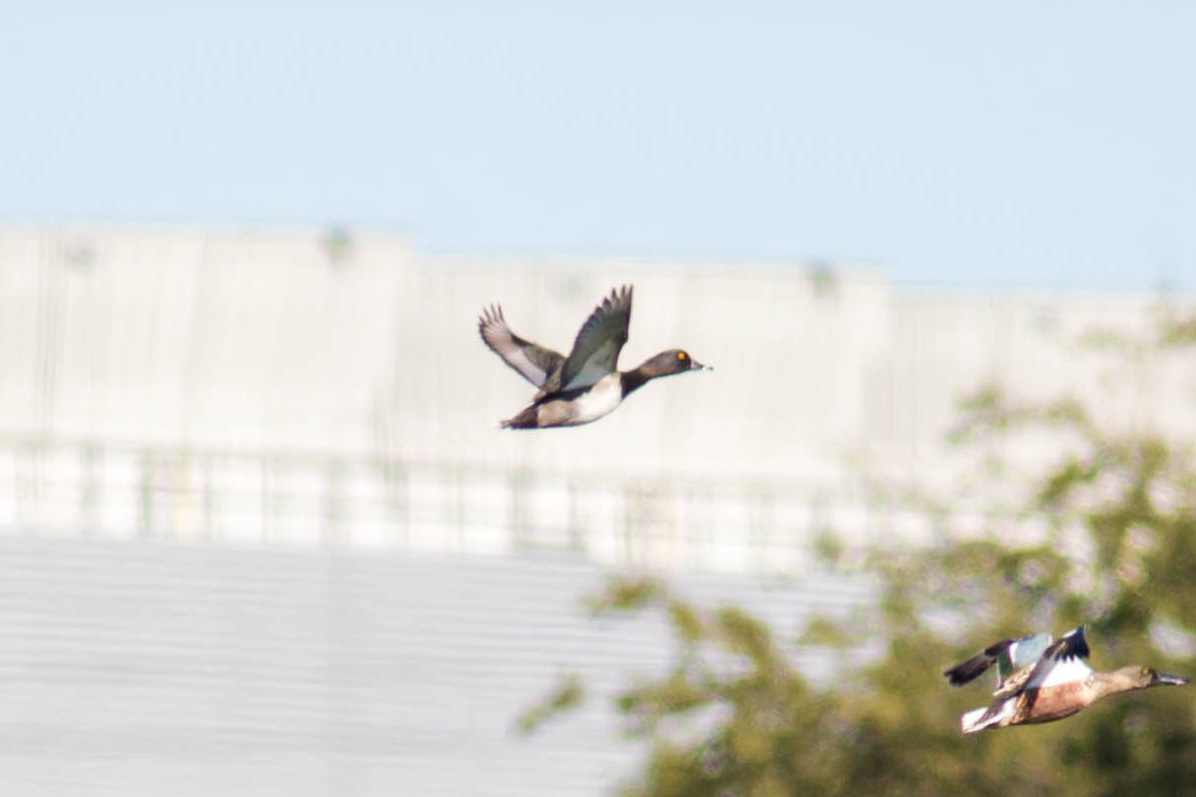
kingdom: Animalia
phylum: Chordata
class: Aves
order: Anseriformes
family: Anatidae
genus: Aythya
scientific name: Aythya collaris
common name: Ring-necked duck
